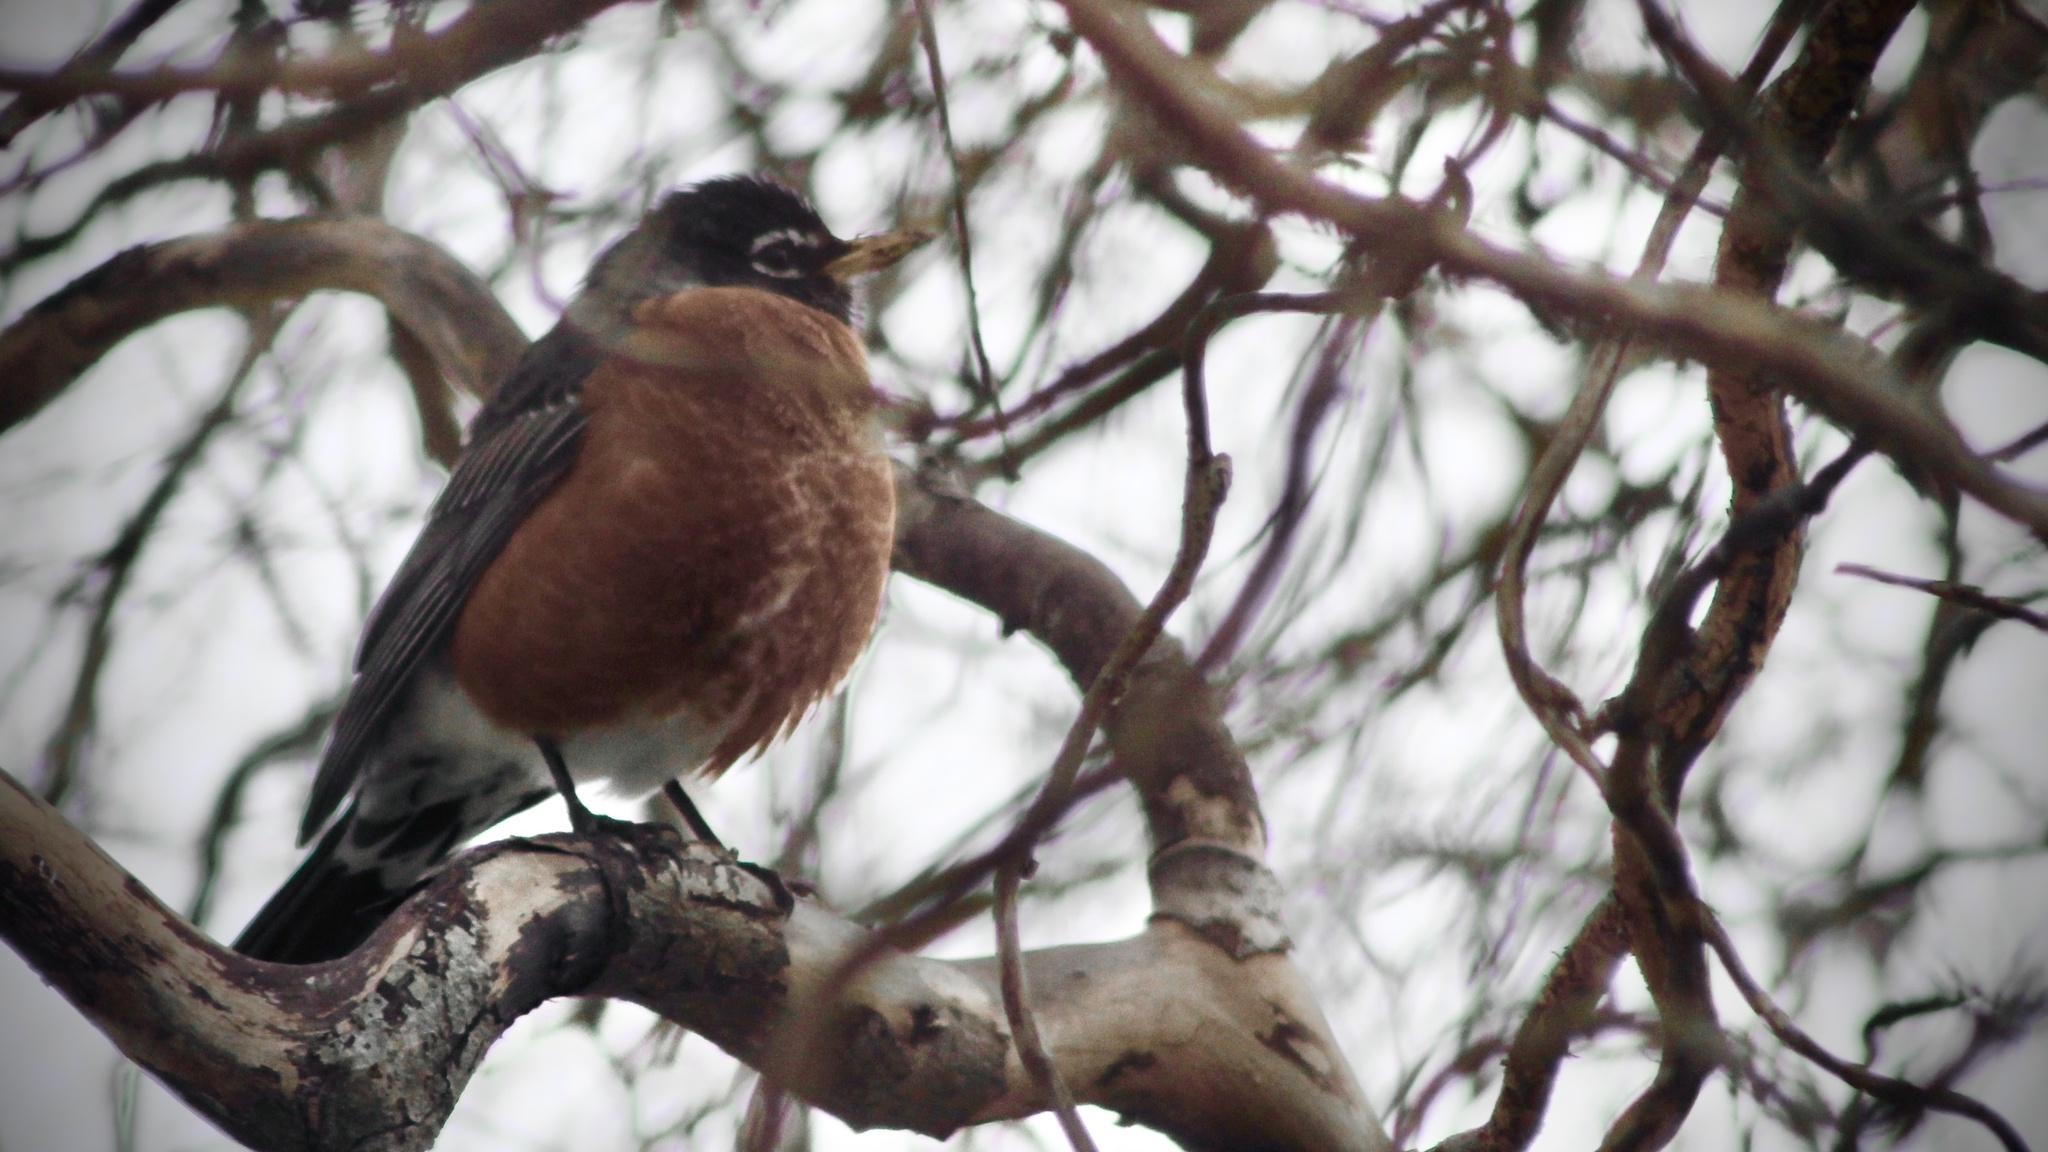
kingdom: Animalia
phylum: Chordata
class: Aves
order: Passeriformes
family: Turdidae
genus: Turdus
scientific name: Turdus migratorius
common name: American robin
